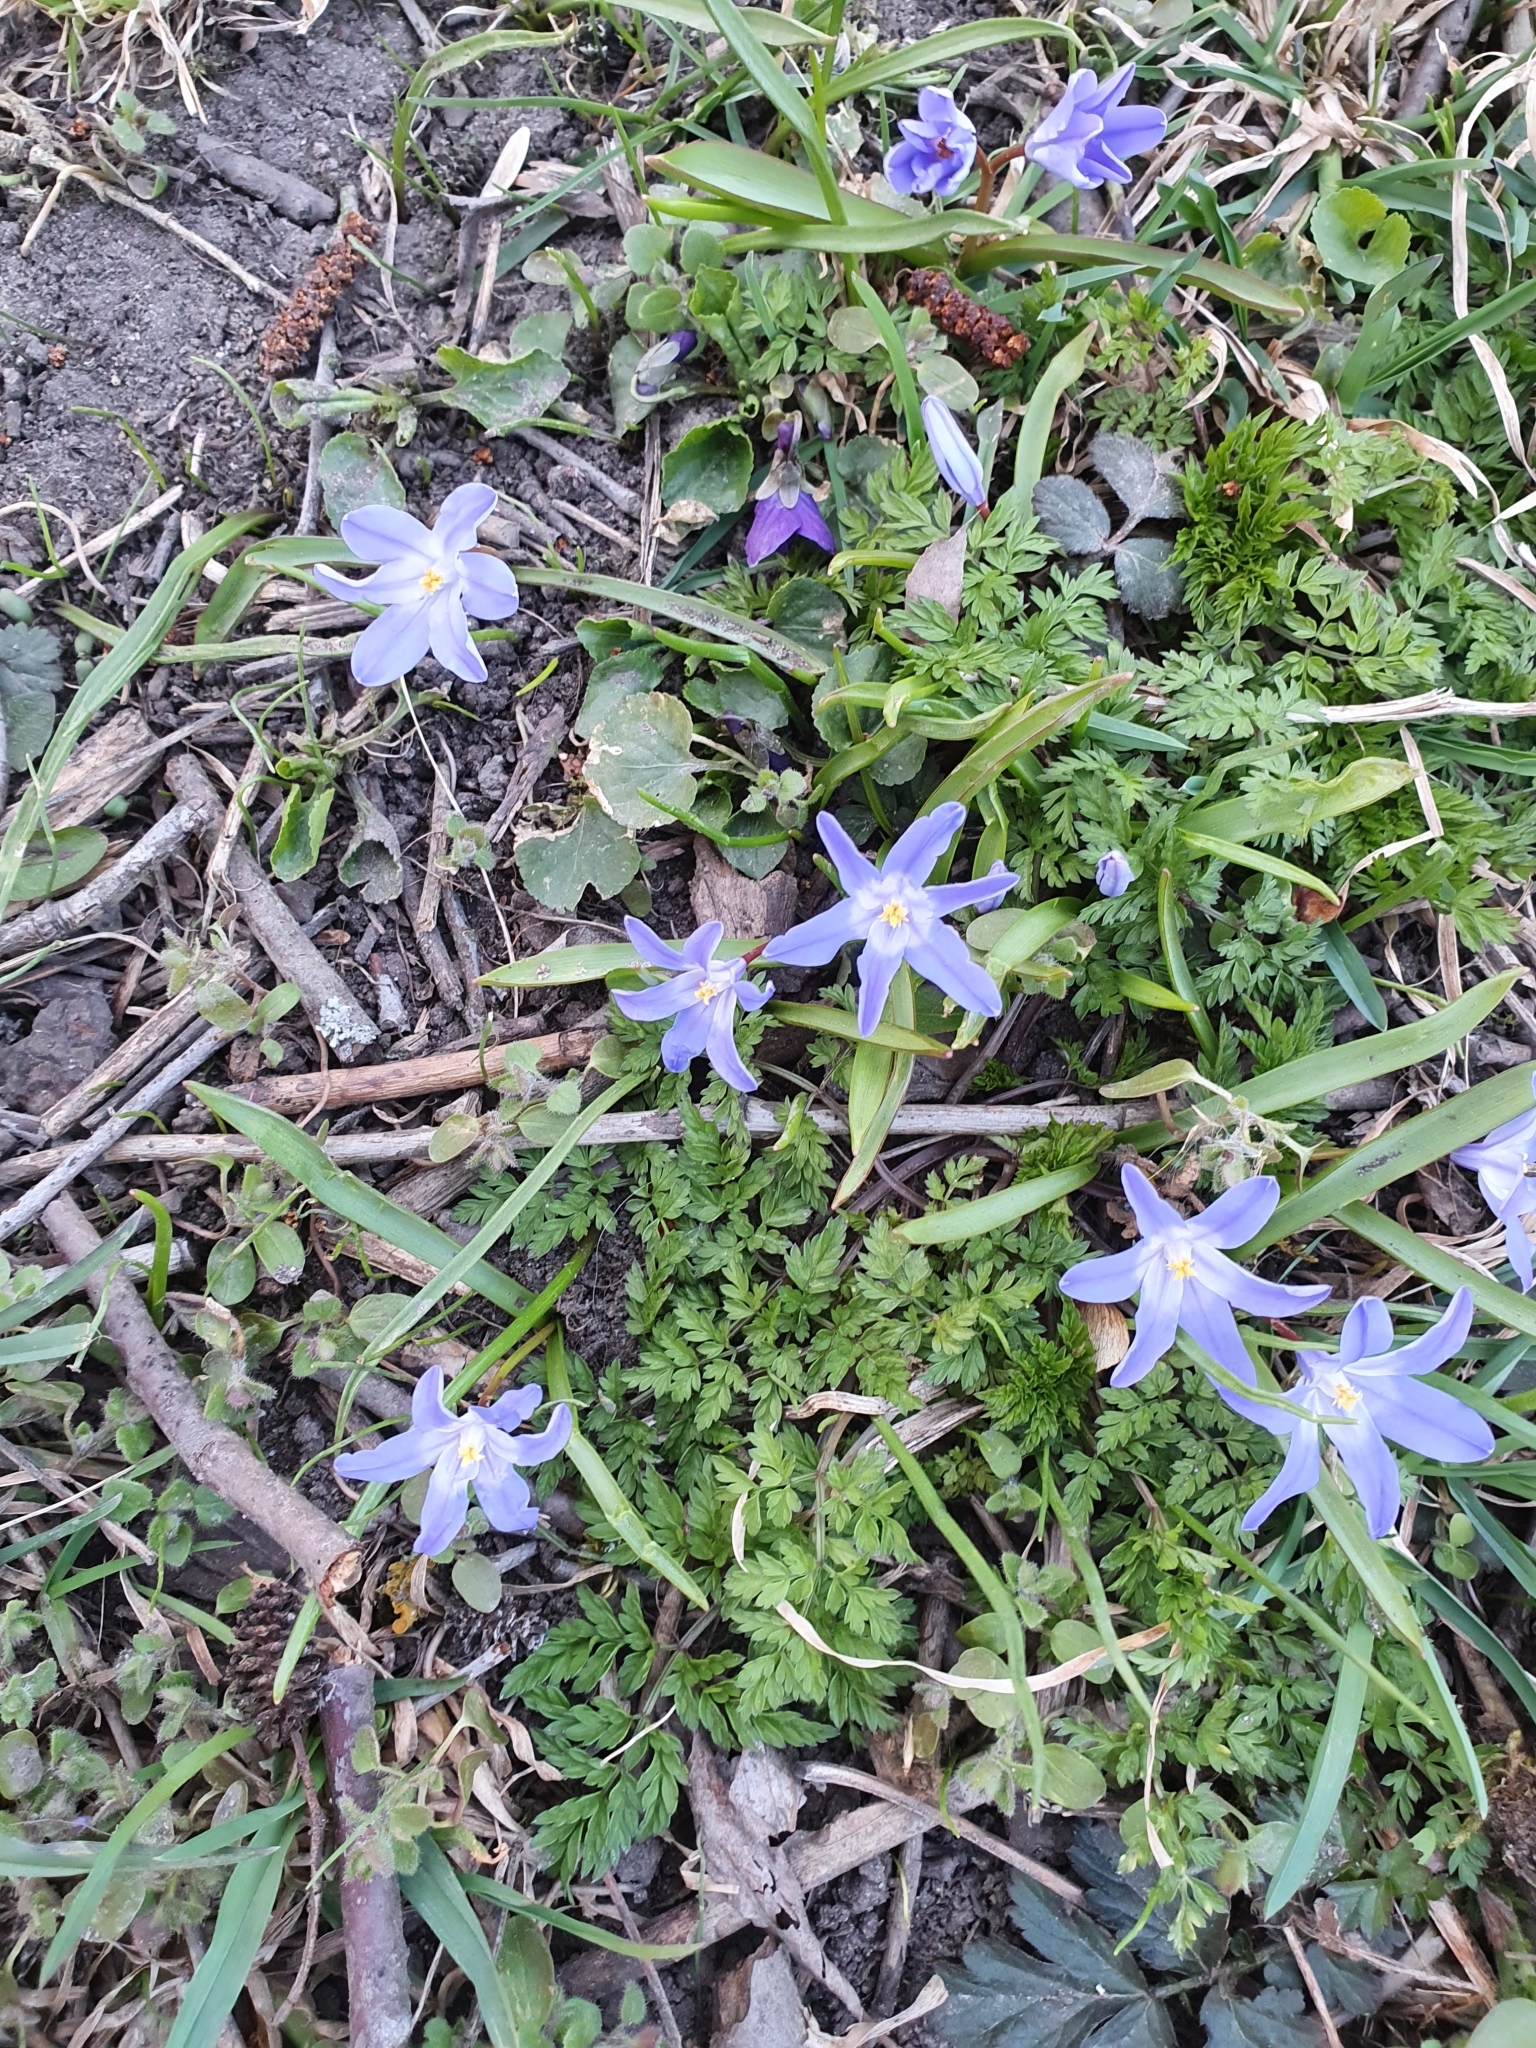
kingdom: Plantae
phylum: Tracheophyta
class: Liliopsida
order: Asparagales
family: Asparagaceae
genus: Scilla
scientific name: Scilla luciliae
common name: Boissier's glory-of-the-snow
